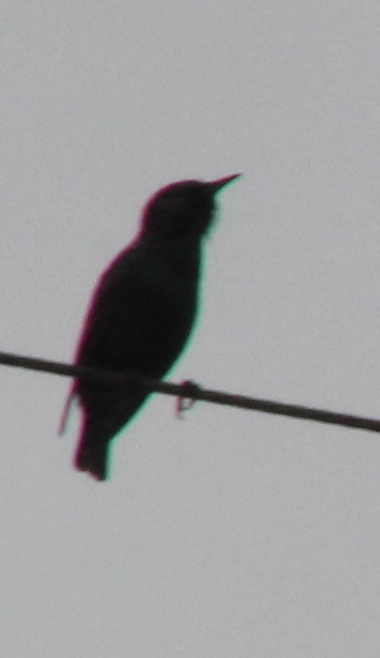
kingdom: Animalia
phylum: Chordata
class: Aves
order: Passeriformes
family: Sturnidae
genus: Sturnus
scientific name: Sturnus vulgaris
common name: Common starling
